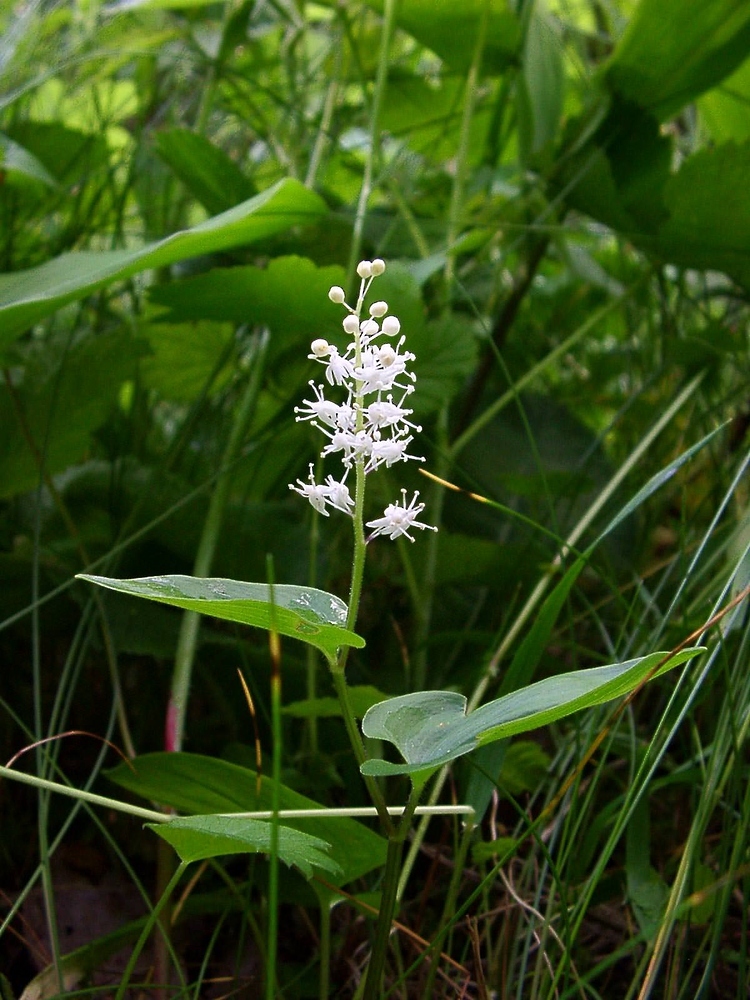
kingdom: Plantae
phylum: Tracheophyta
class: Liliopsida
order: Asparagales
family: Asparagaceae
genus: Maianthemum
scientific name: Maianthemum bifolium
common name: May lily
